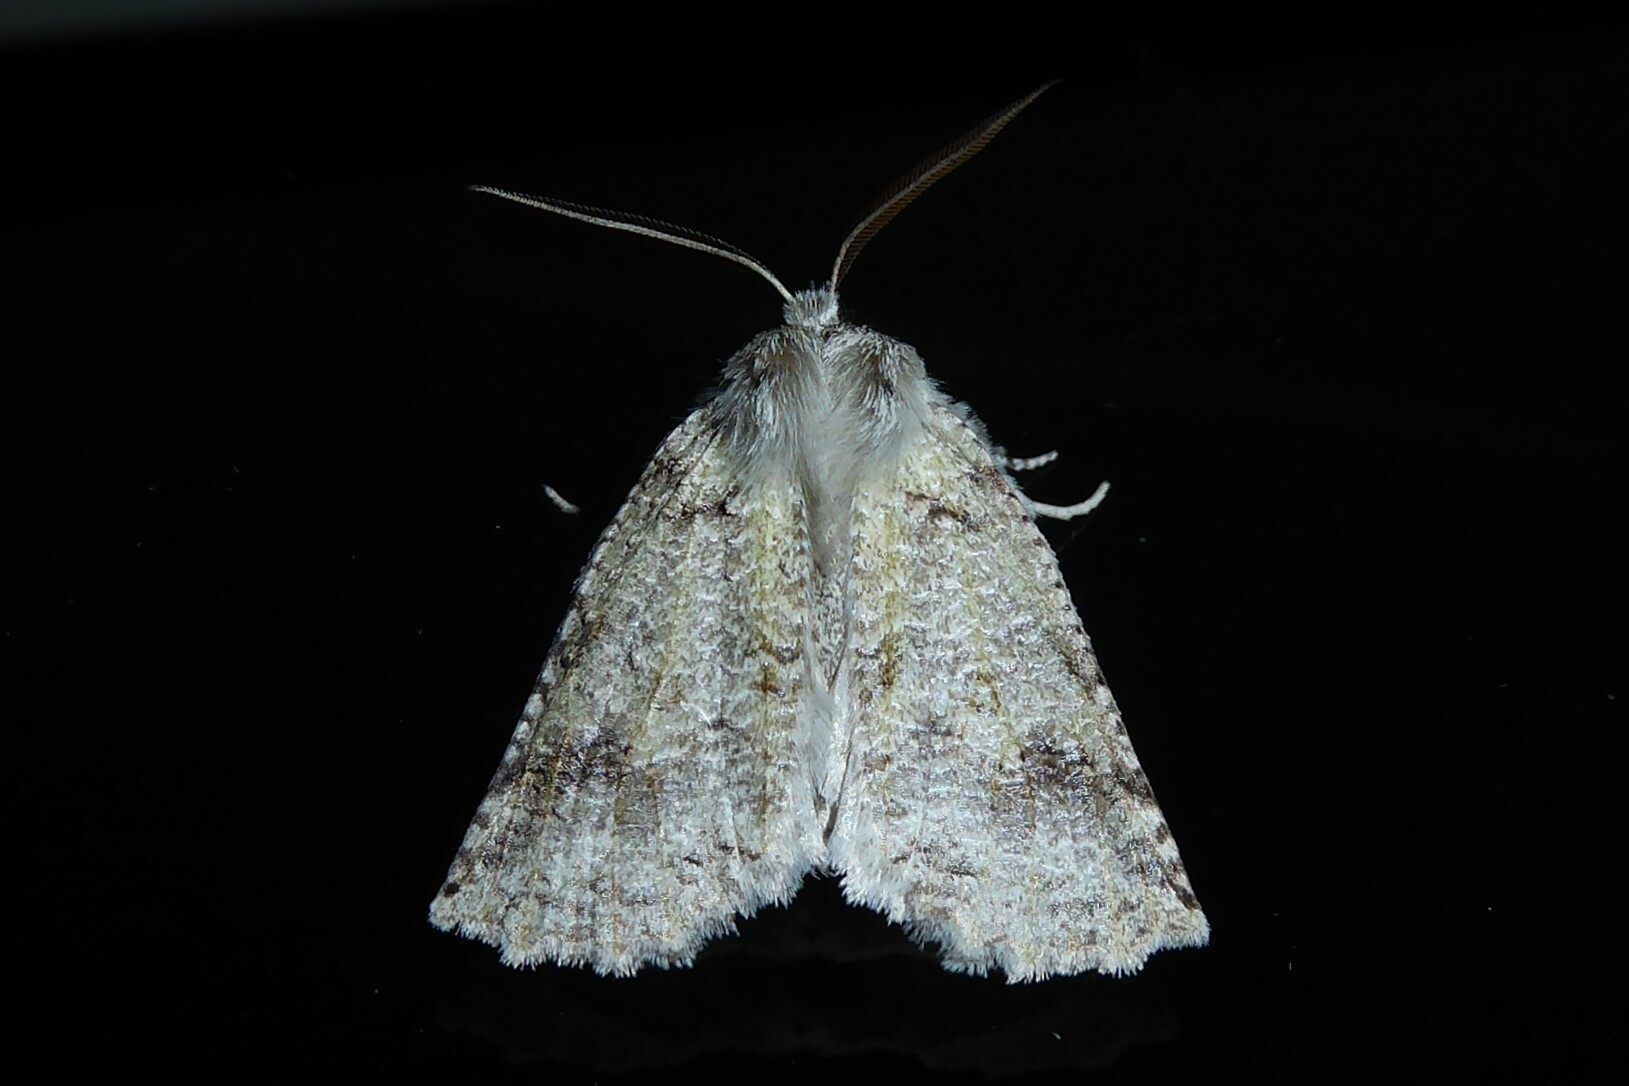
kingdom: Animalia
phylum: Arthropoda
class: Insecta
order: Lepidoptera
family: Geometridae
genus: Declana
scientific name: Declana floccosa
